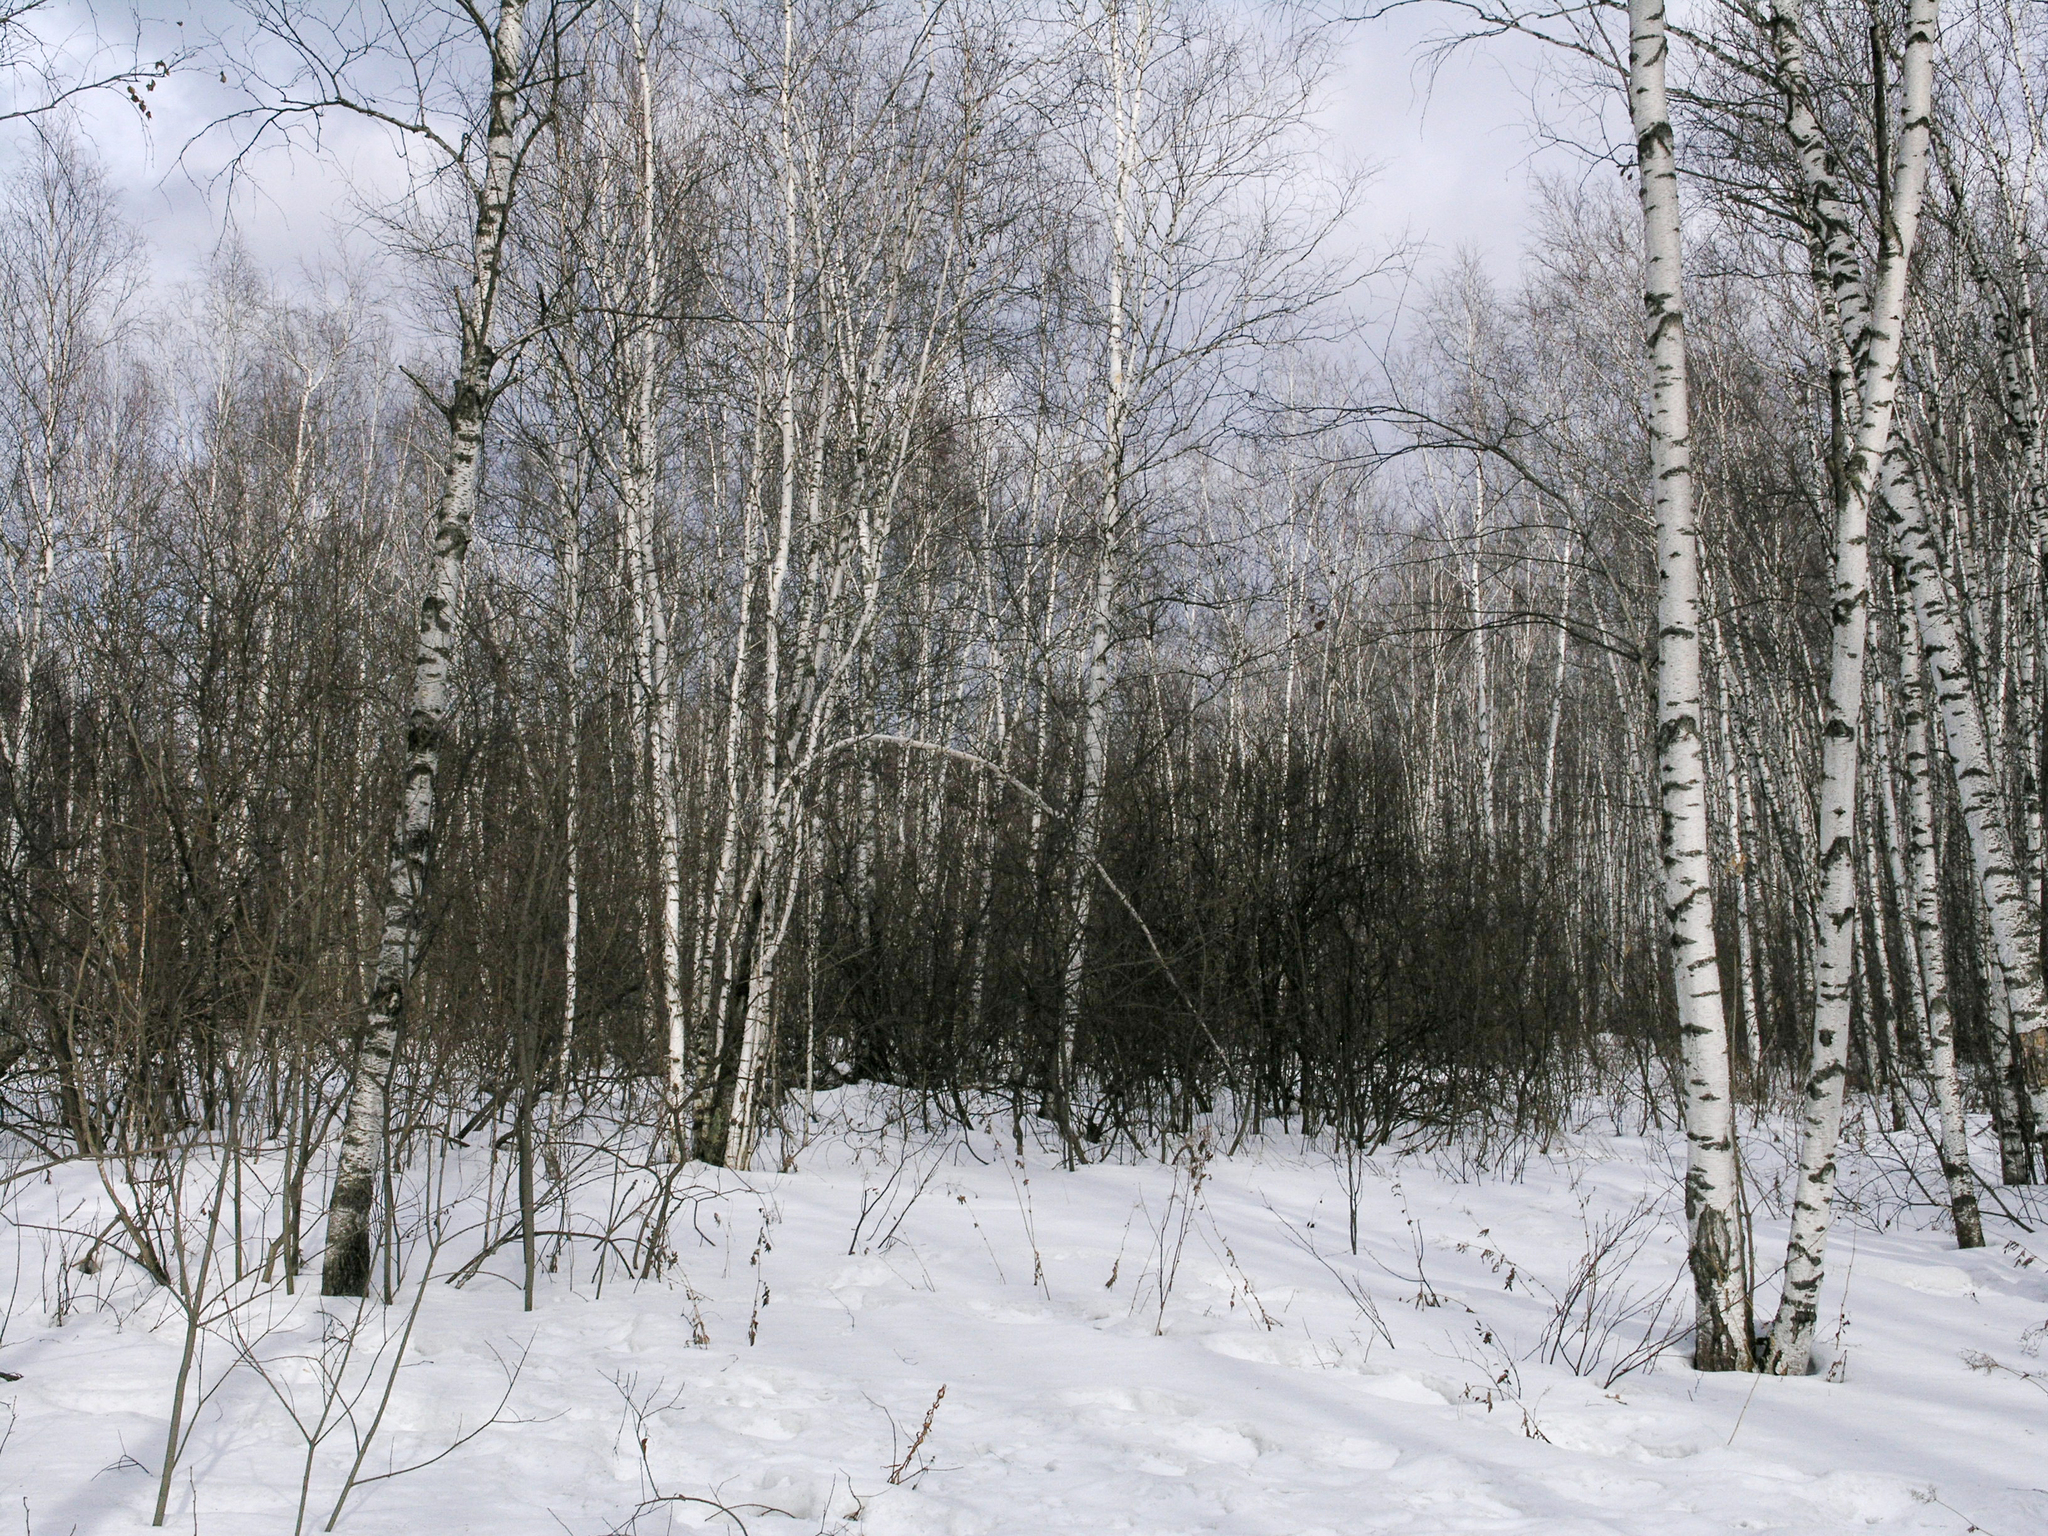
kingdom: Plantae
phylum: Tracheophyta
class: Magnoliopsida
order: Fagales
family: Betulaceae
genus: Betula
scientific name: Betula pendula
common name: Silver birch
